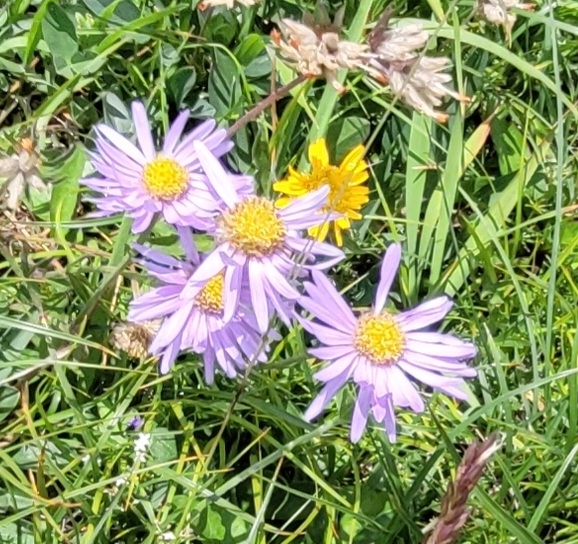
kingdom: Plantae
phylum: Tracheophyta
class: Magnoliopsida
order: Asterales
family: Asteraceae
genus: Aster
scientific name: Aster alpinus
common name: Alpine aster
